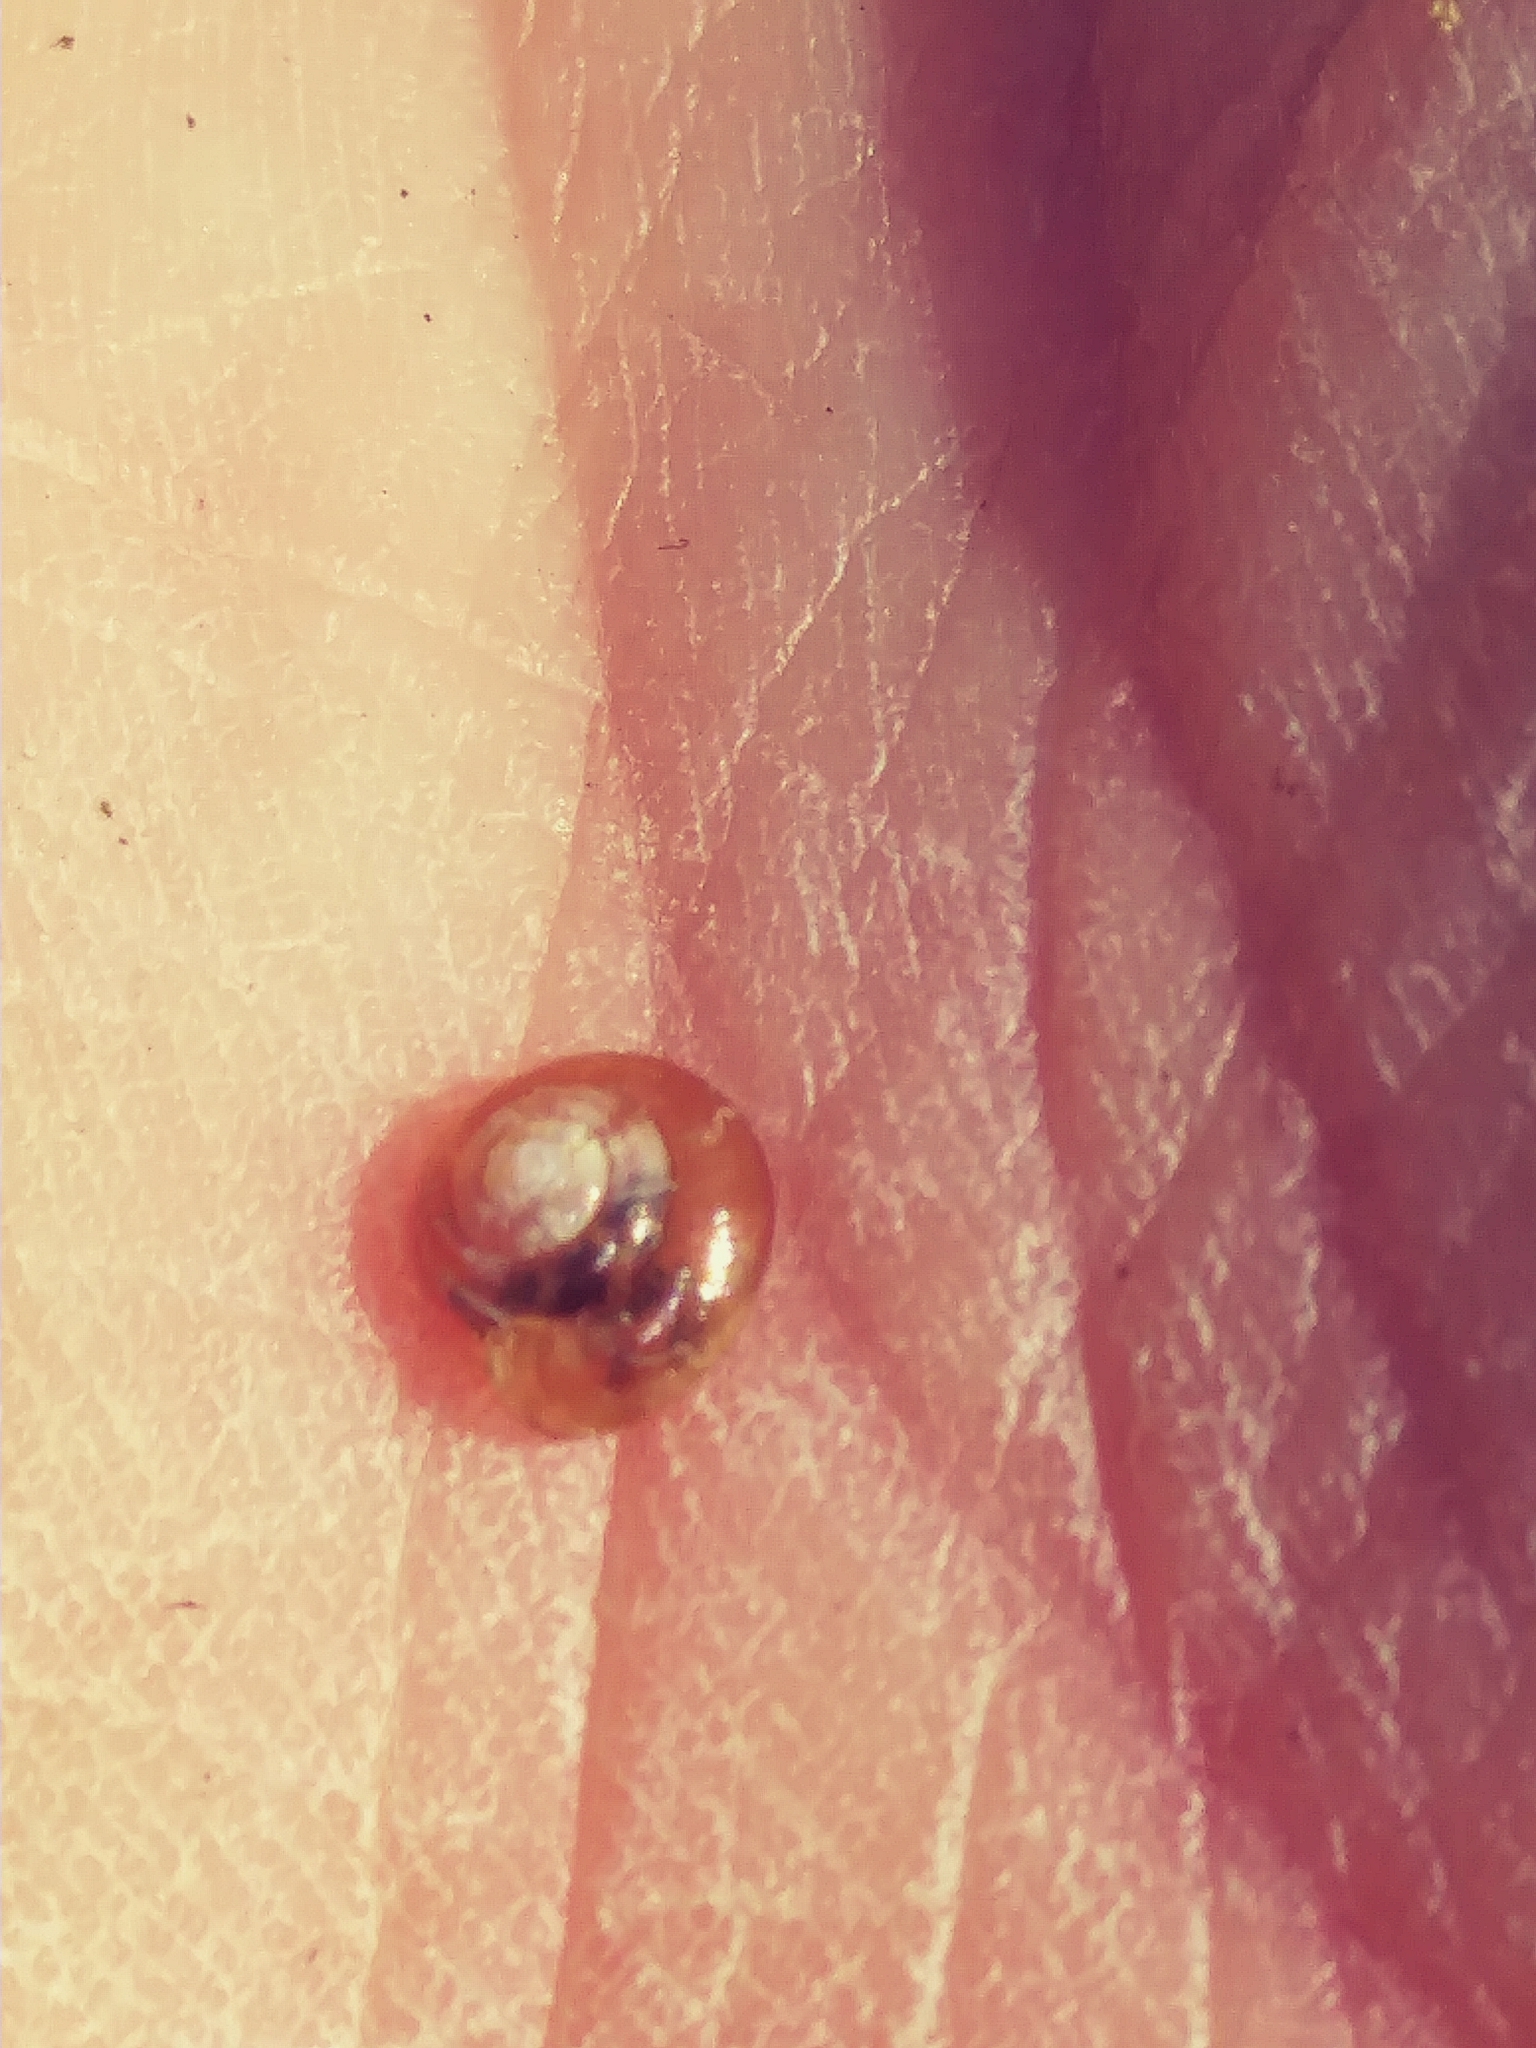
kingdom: Animalia
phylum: Mollusca
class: Gastropoda
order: Stylommatophora
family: Gastrodontidae
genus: Zonitoides
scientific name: Zonitoides arboreus
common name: Quick gloss
